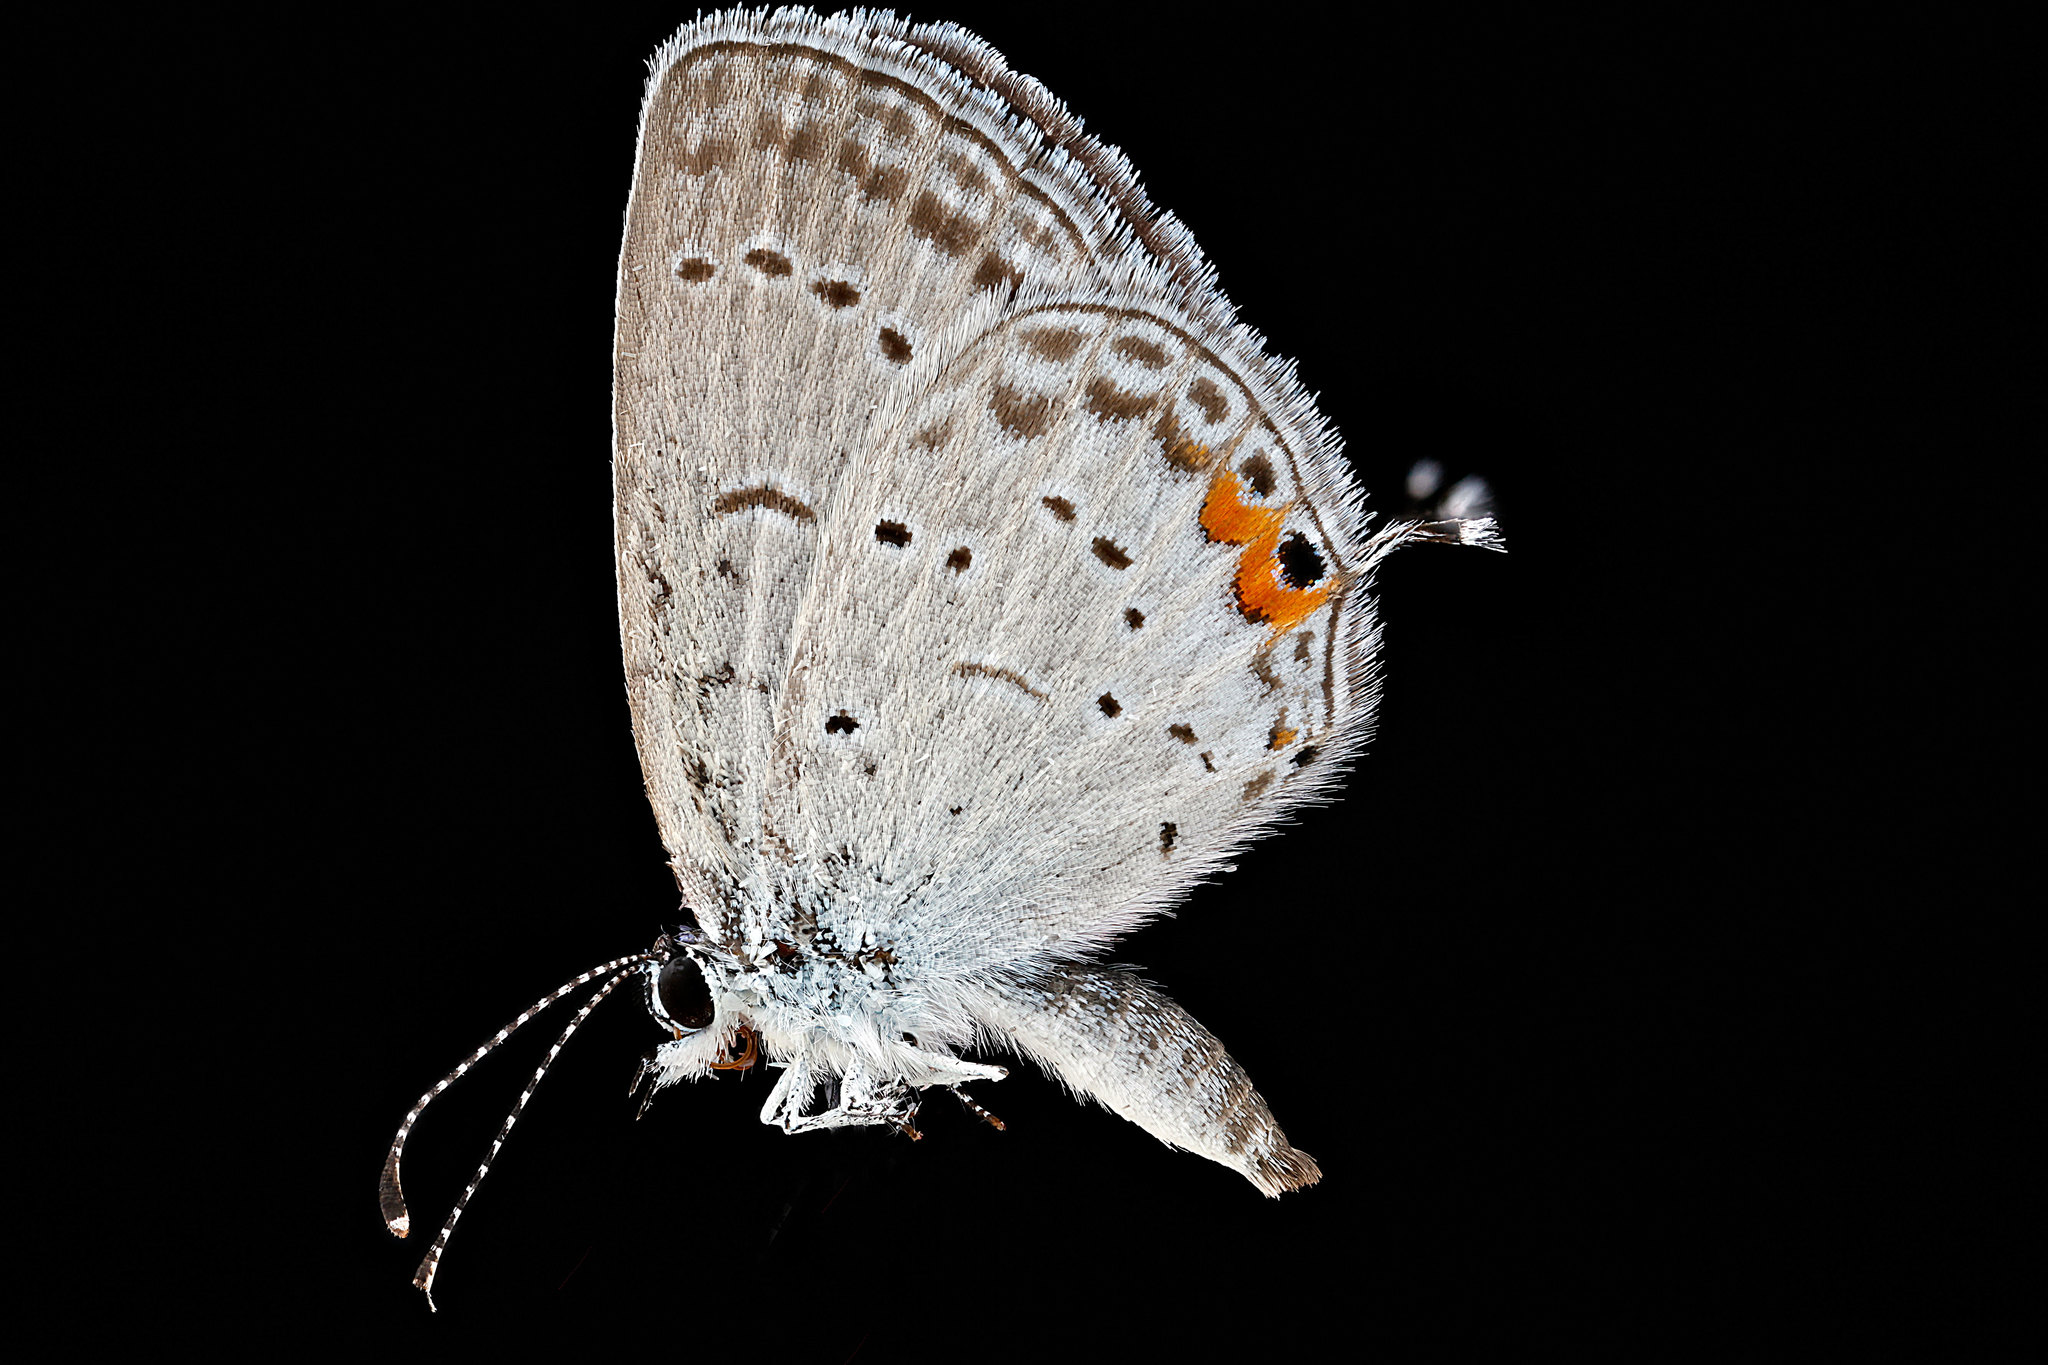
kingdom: Animalia
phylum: Arthropoda
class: Insecta
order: Lepidoptera
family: Lycaenidae
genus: Elkalyce
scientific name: Elkalyce comyntas
